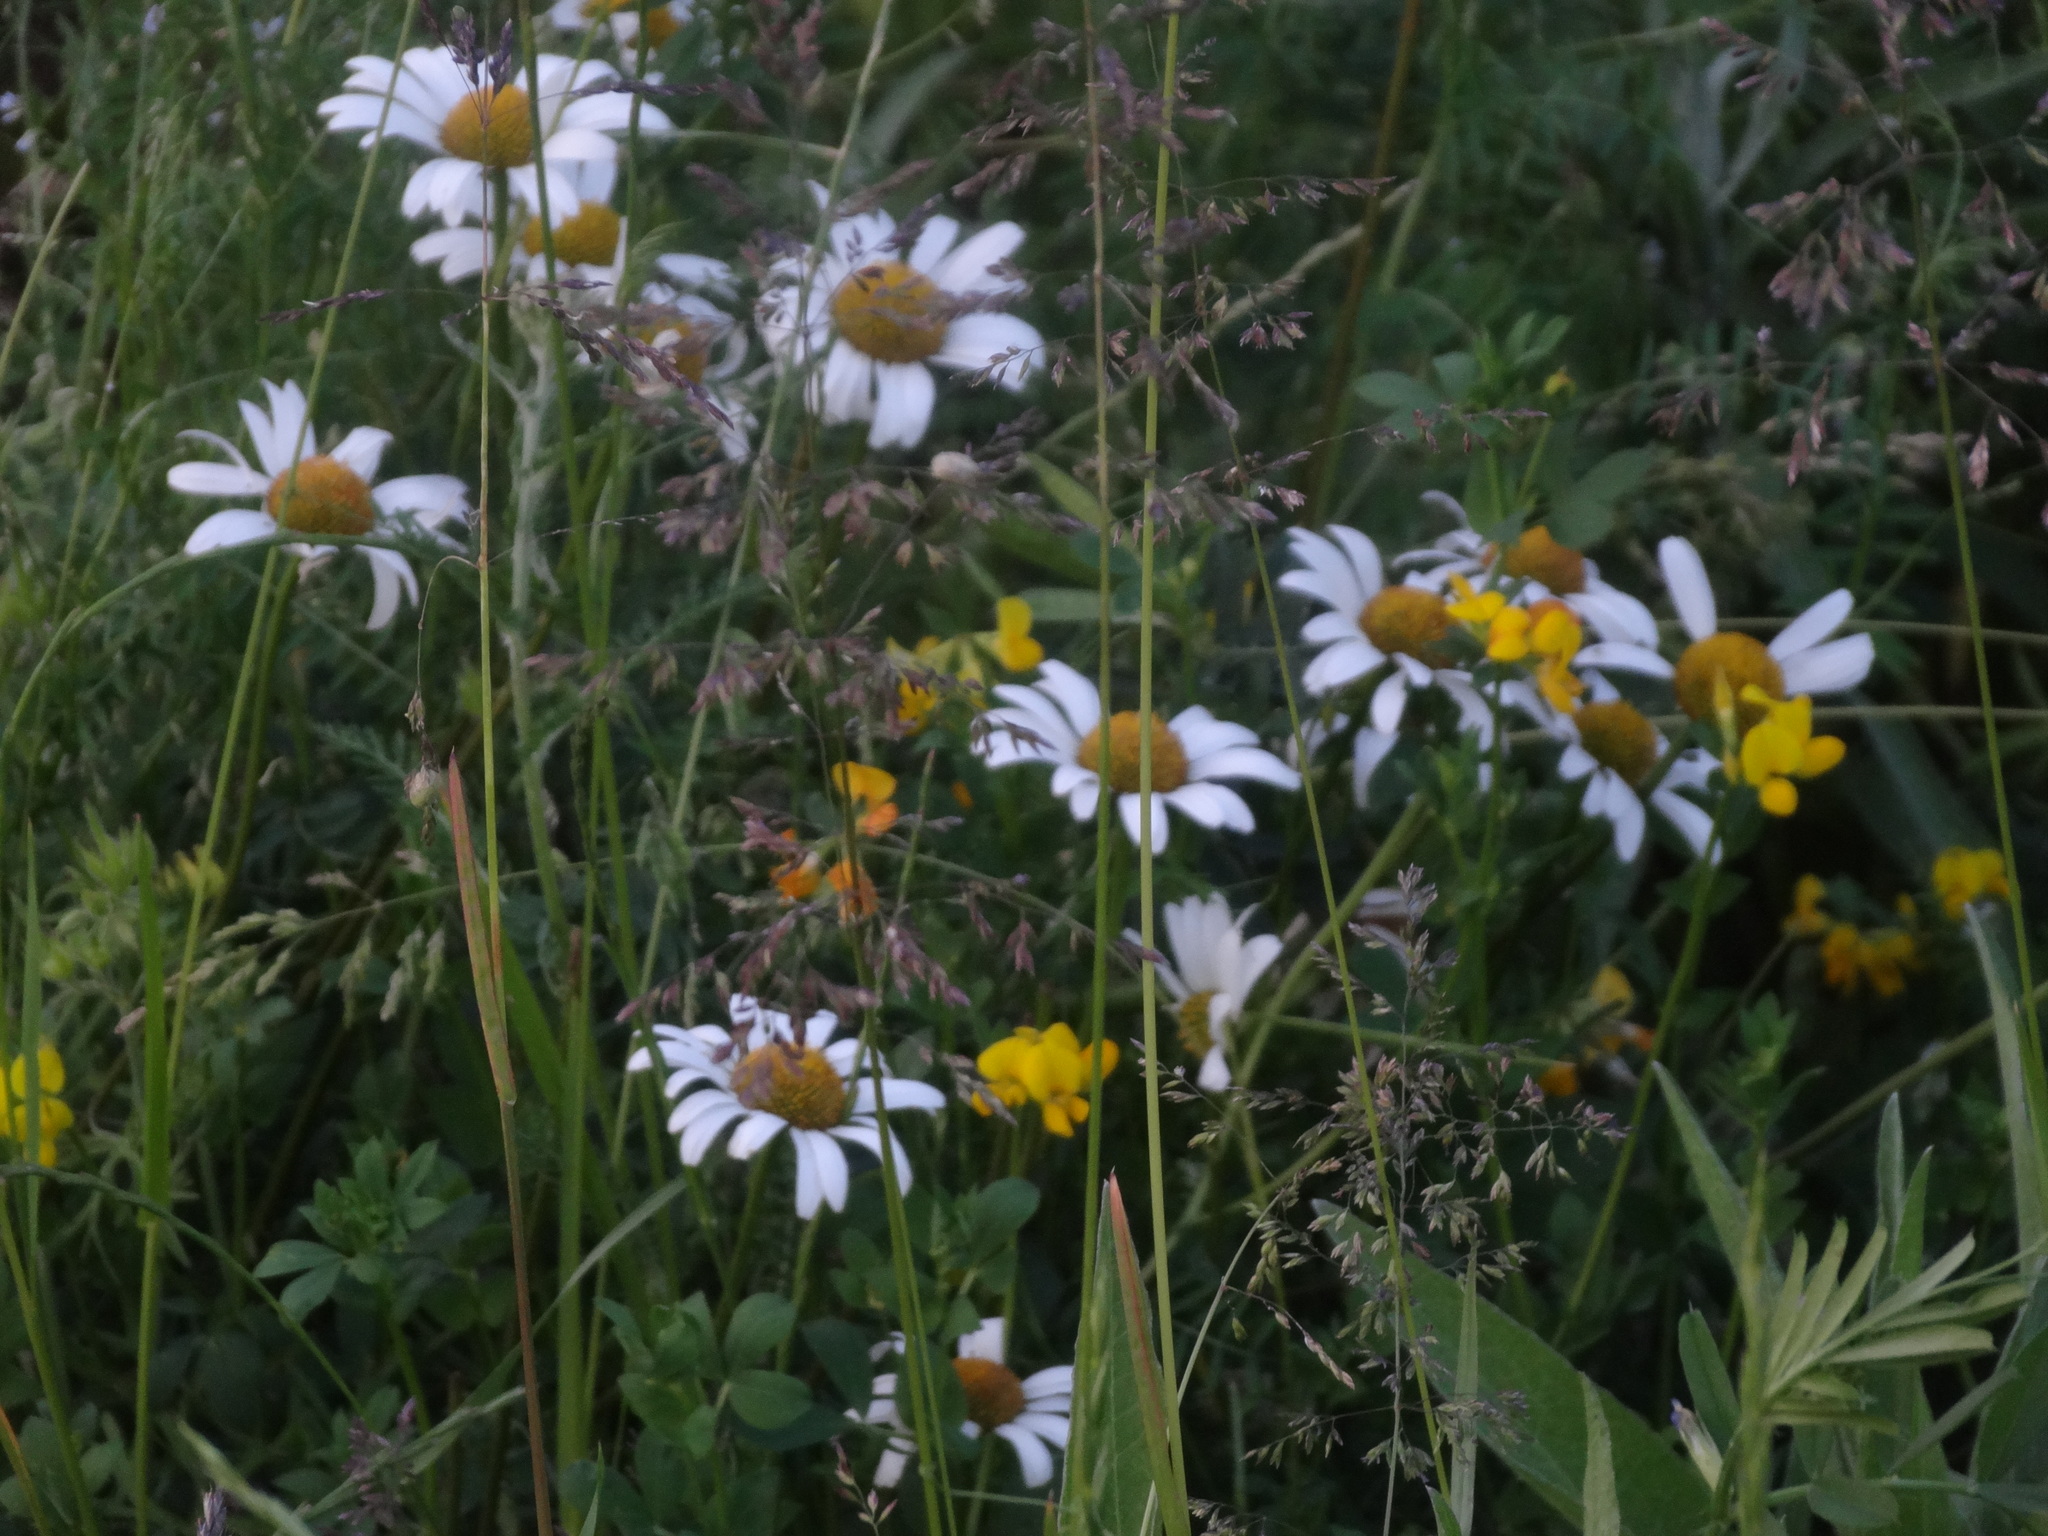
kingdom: Plantae
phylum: Tracheophyta
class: Magnoliopsida
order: Asterales
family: Asteraceae
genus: Leucanthemum
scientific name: Leucanthemum vulgare
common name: Oxeye daisy
